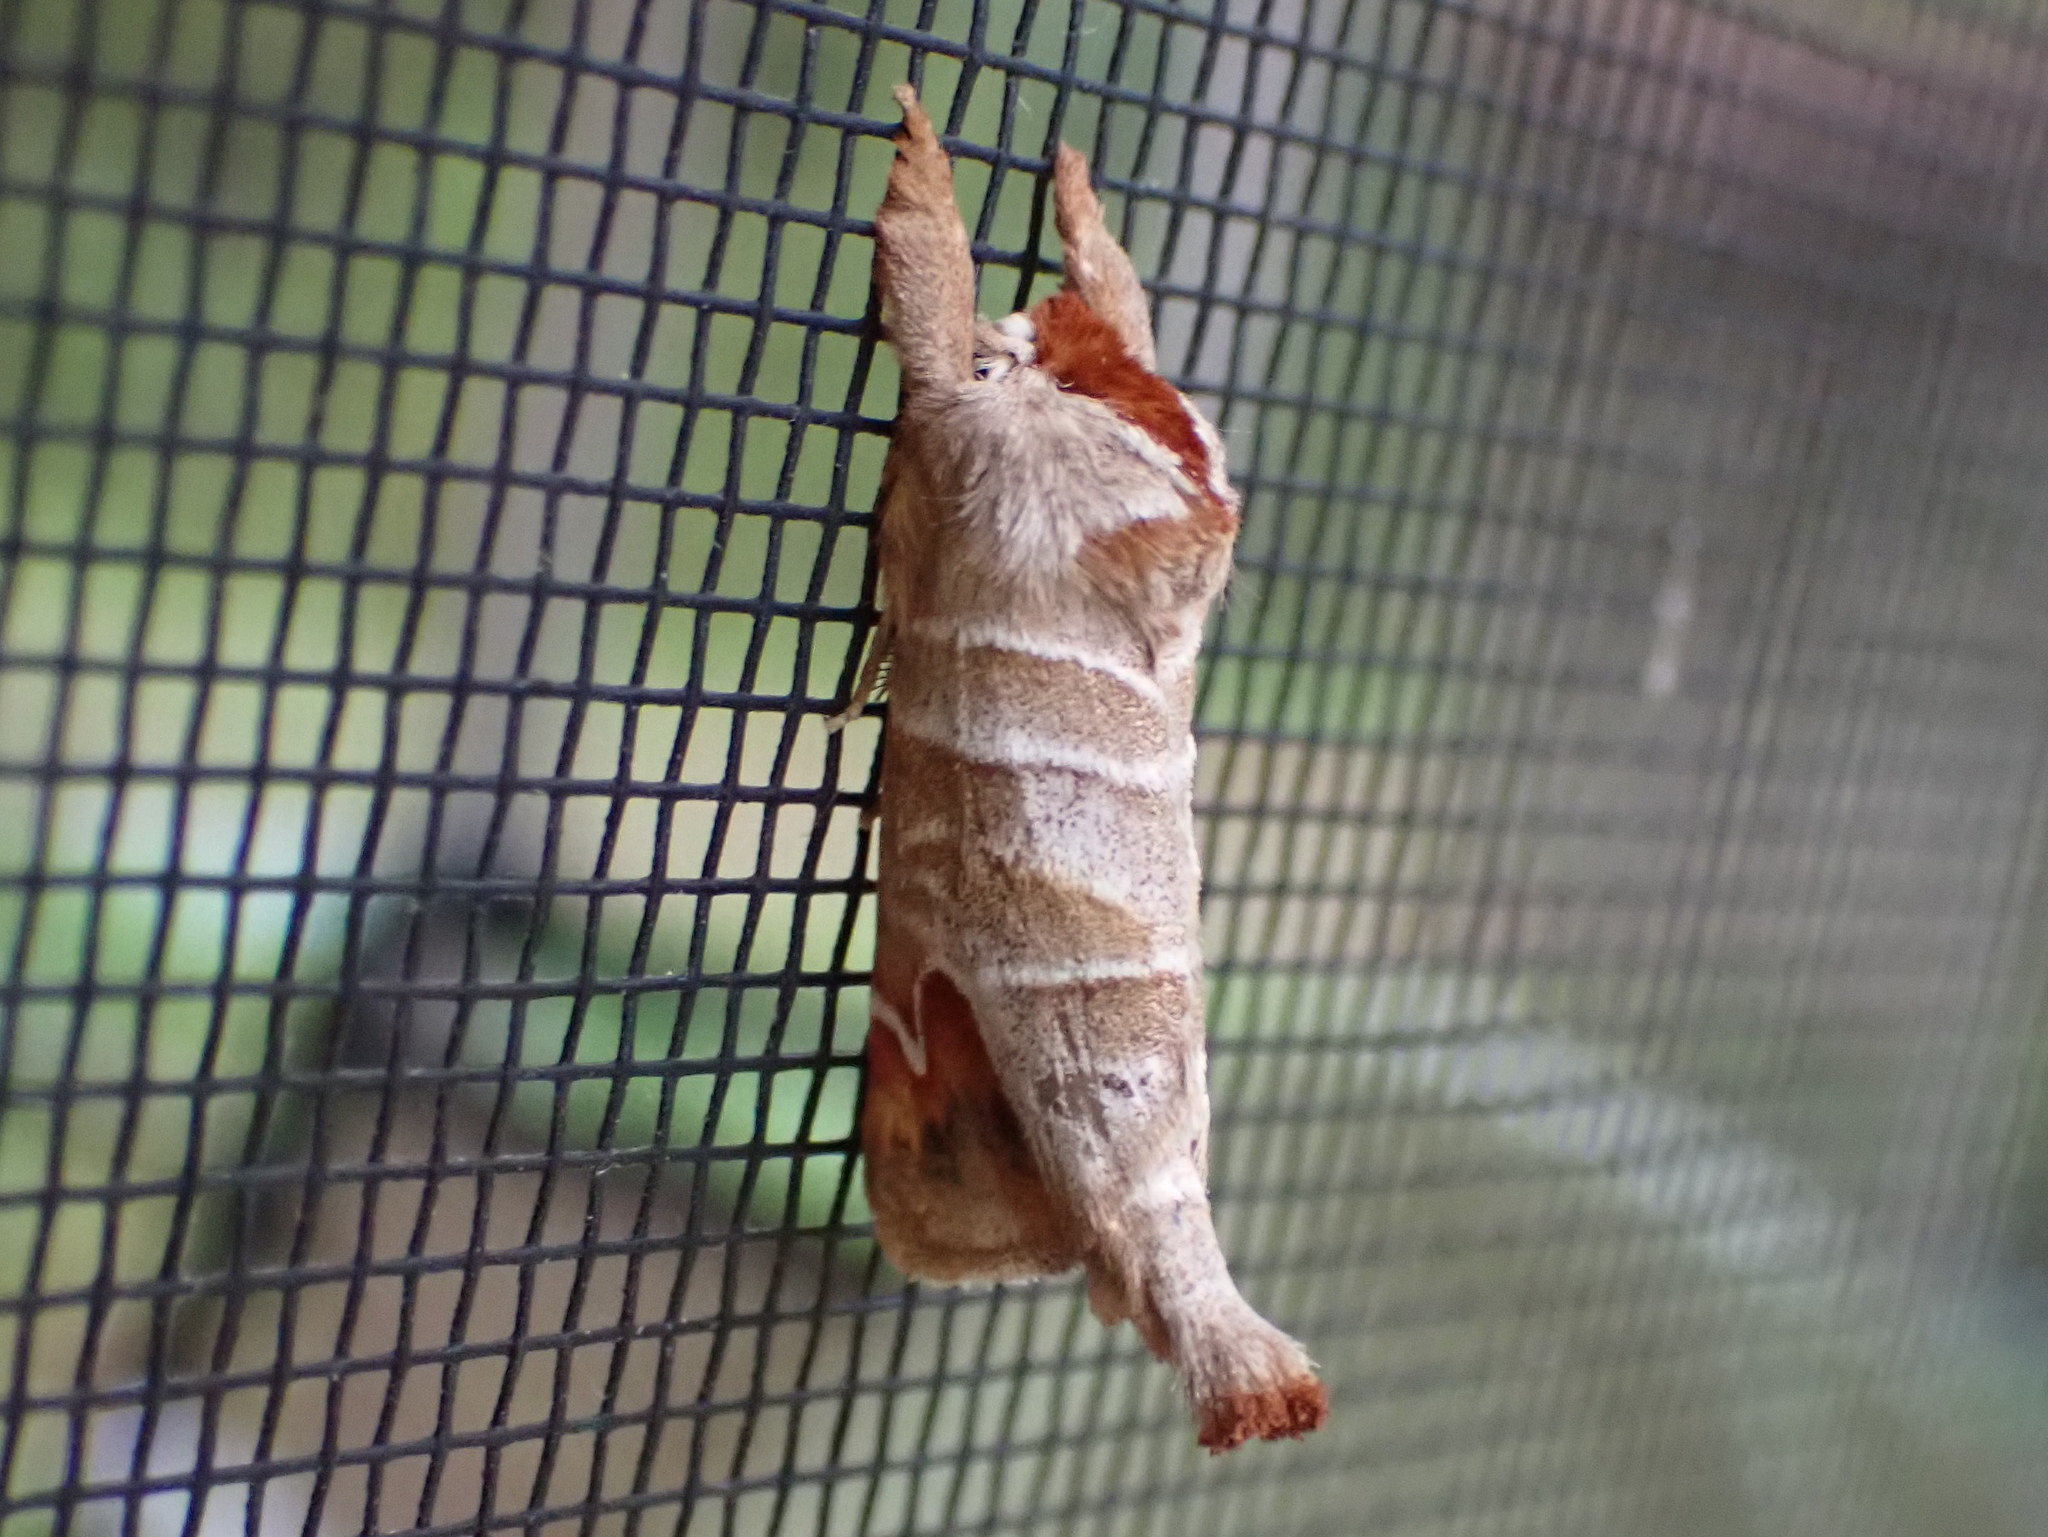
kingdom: Animalia
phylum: Arthropoda
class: Insecta
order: Lepidoptera
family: Notodontidae
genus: Clostera
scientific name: Clostera albosigma
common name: Sigmoid prominent
